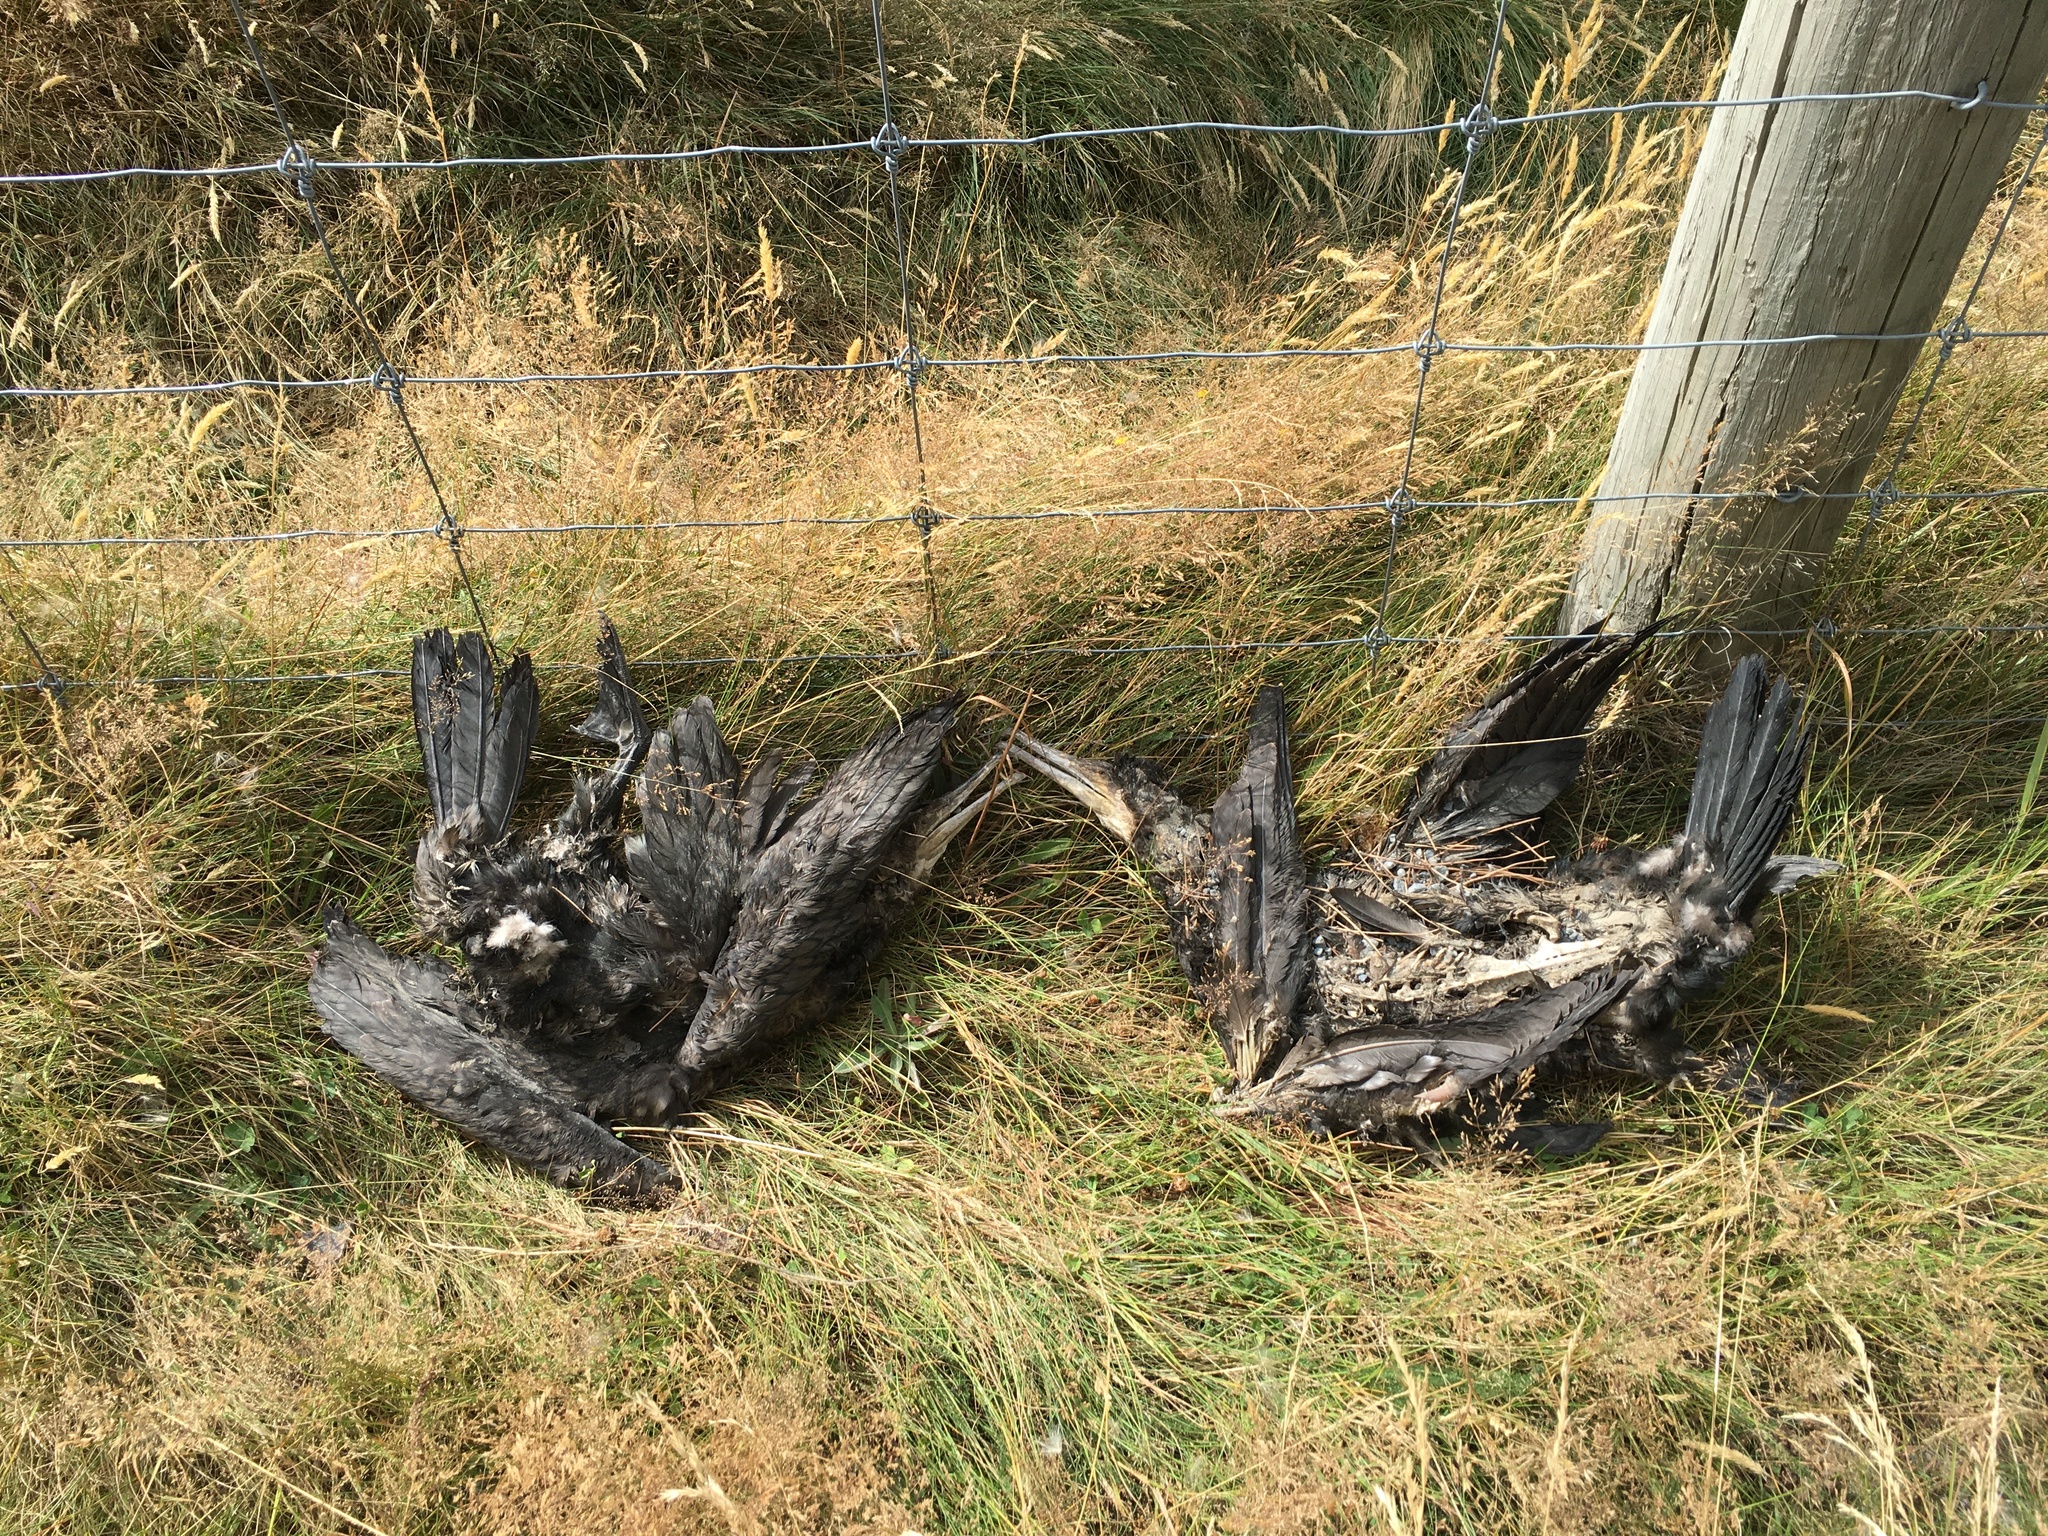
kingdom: Animalia
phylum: Chordata
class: Aves
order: Suliformes
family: Phalacrocoracidae
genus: Phalacrocorax
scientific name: Phalacrocorax carbo
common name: Great cormorant
